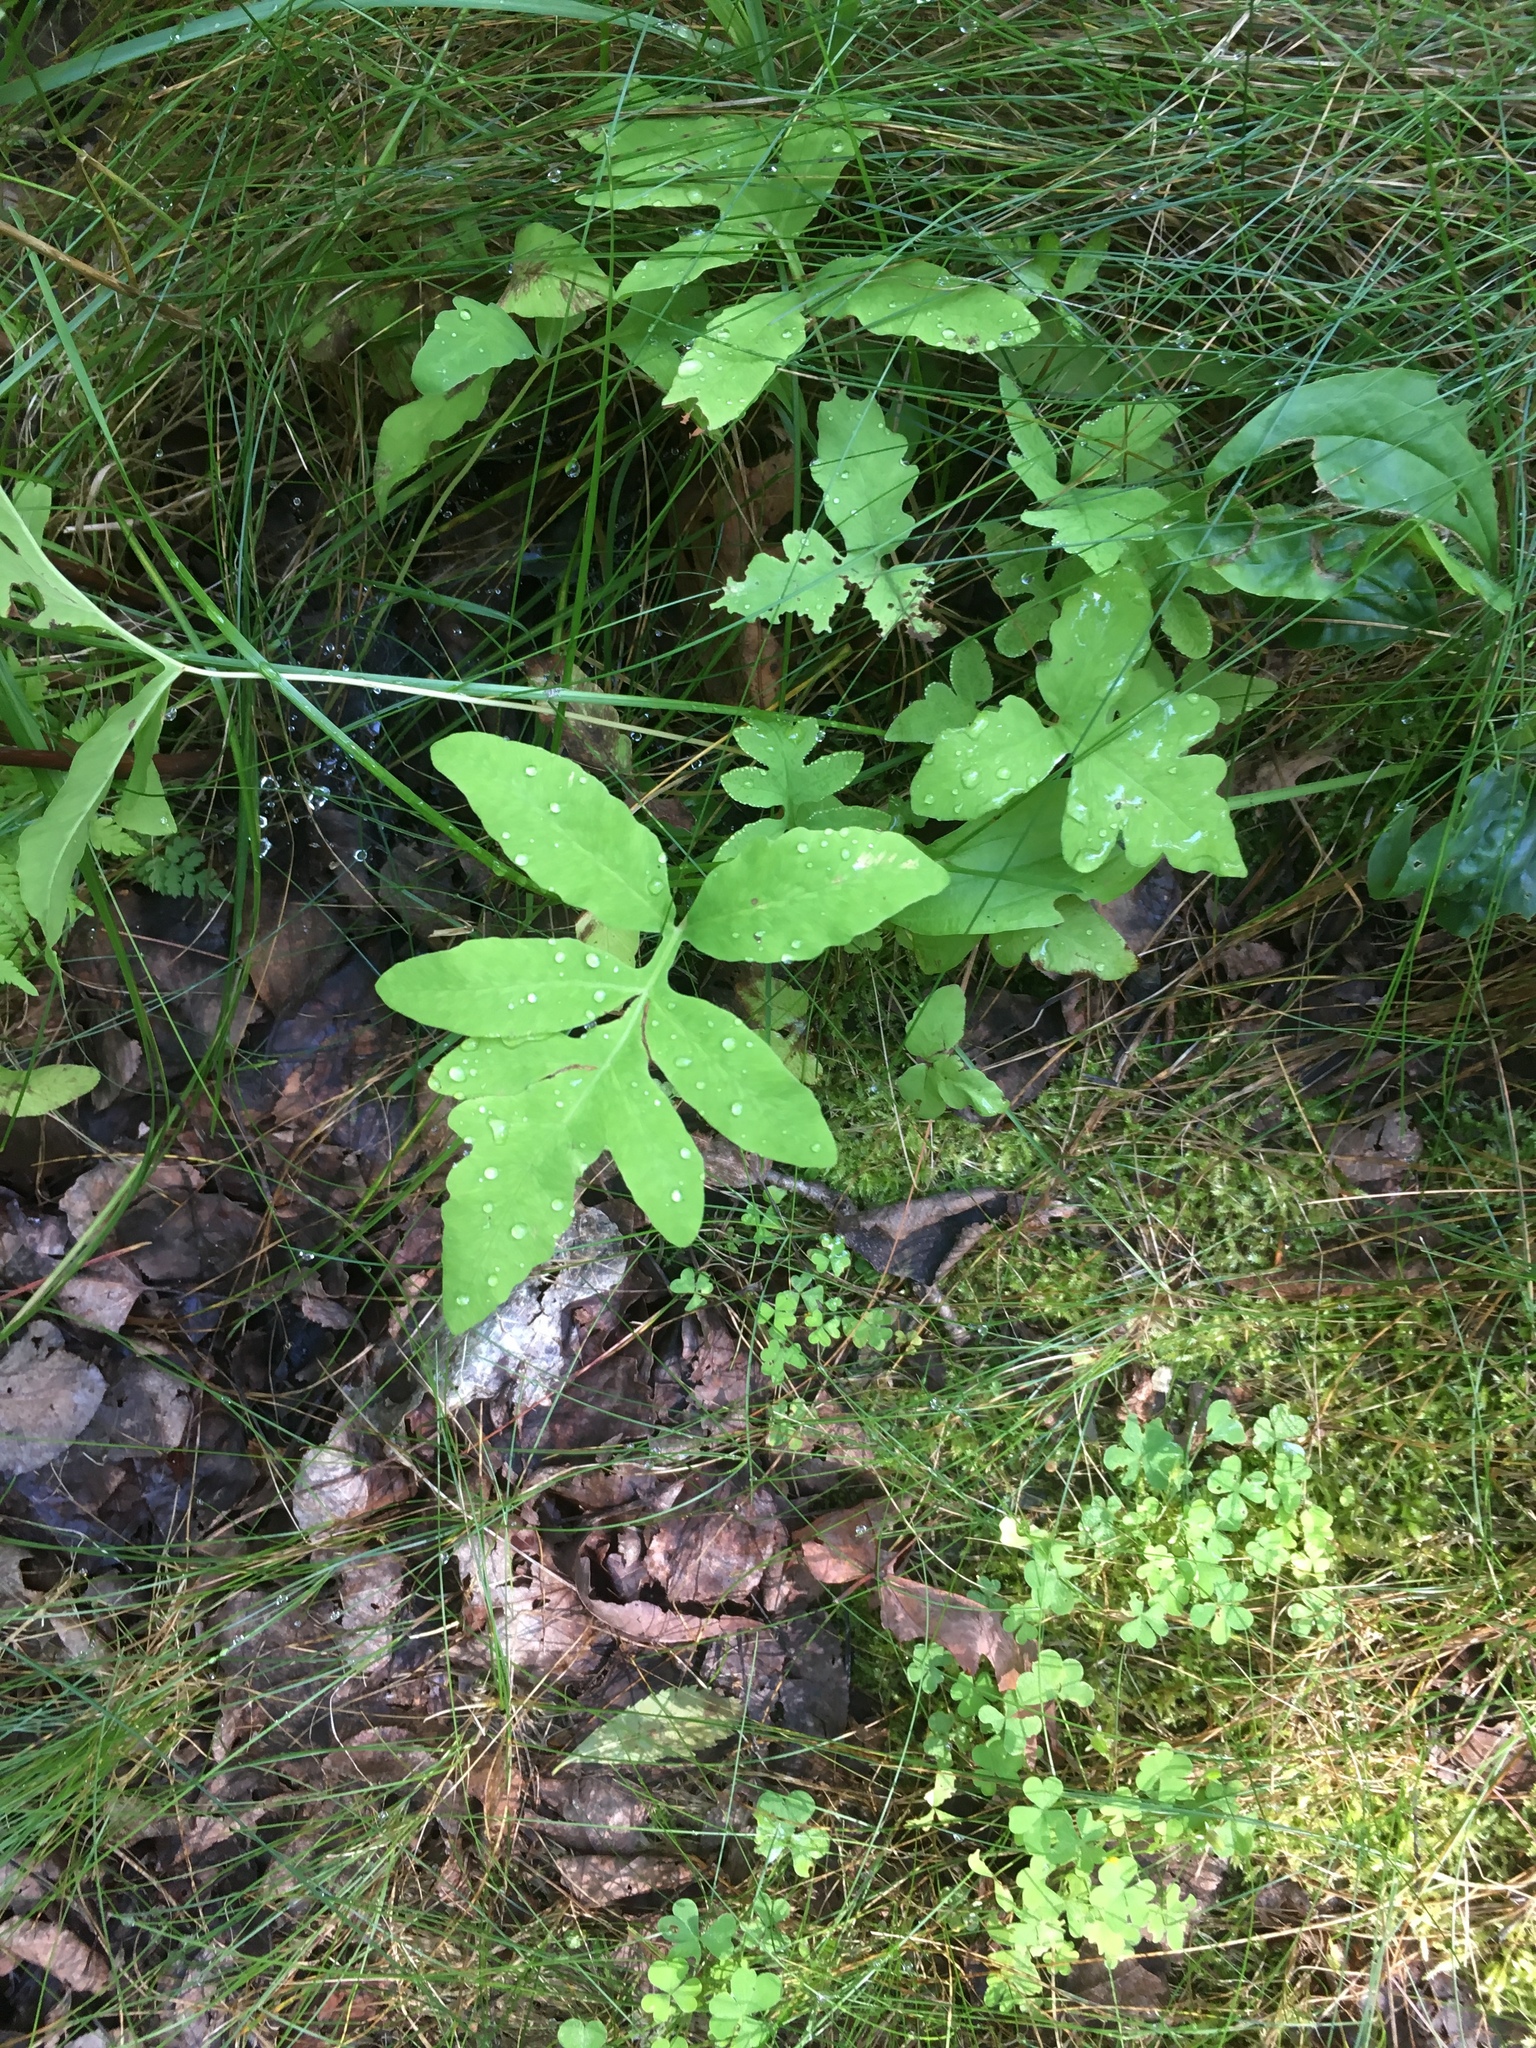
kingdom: Plantae
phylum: Tracheophyta
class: Polypodiopsida
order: Polypodiales
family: Onocleaceae
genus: Onoclea
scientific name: Onoclea sensibilis
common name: Sensitive fern
